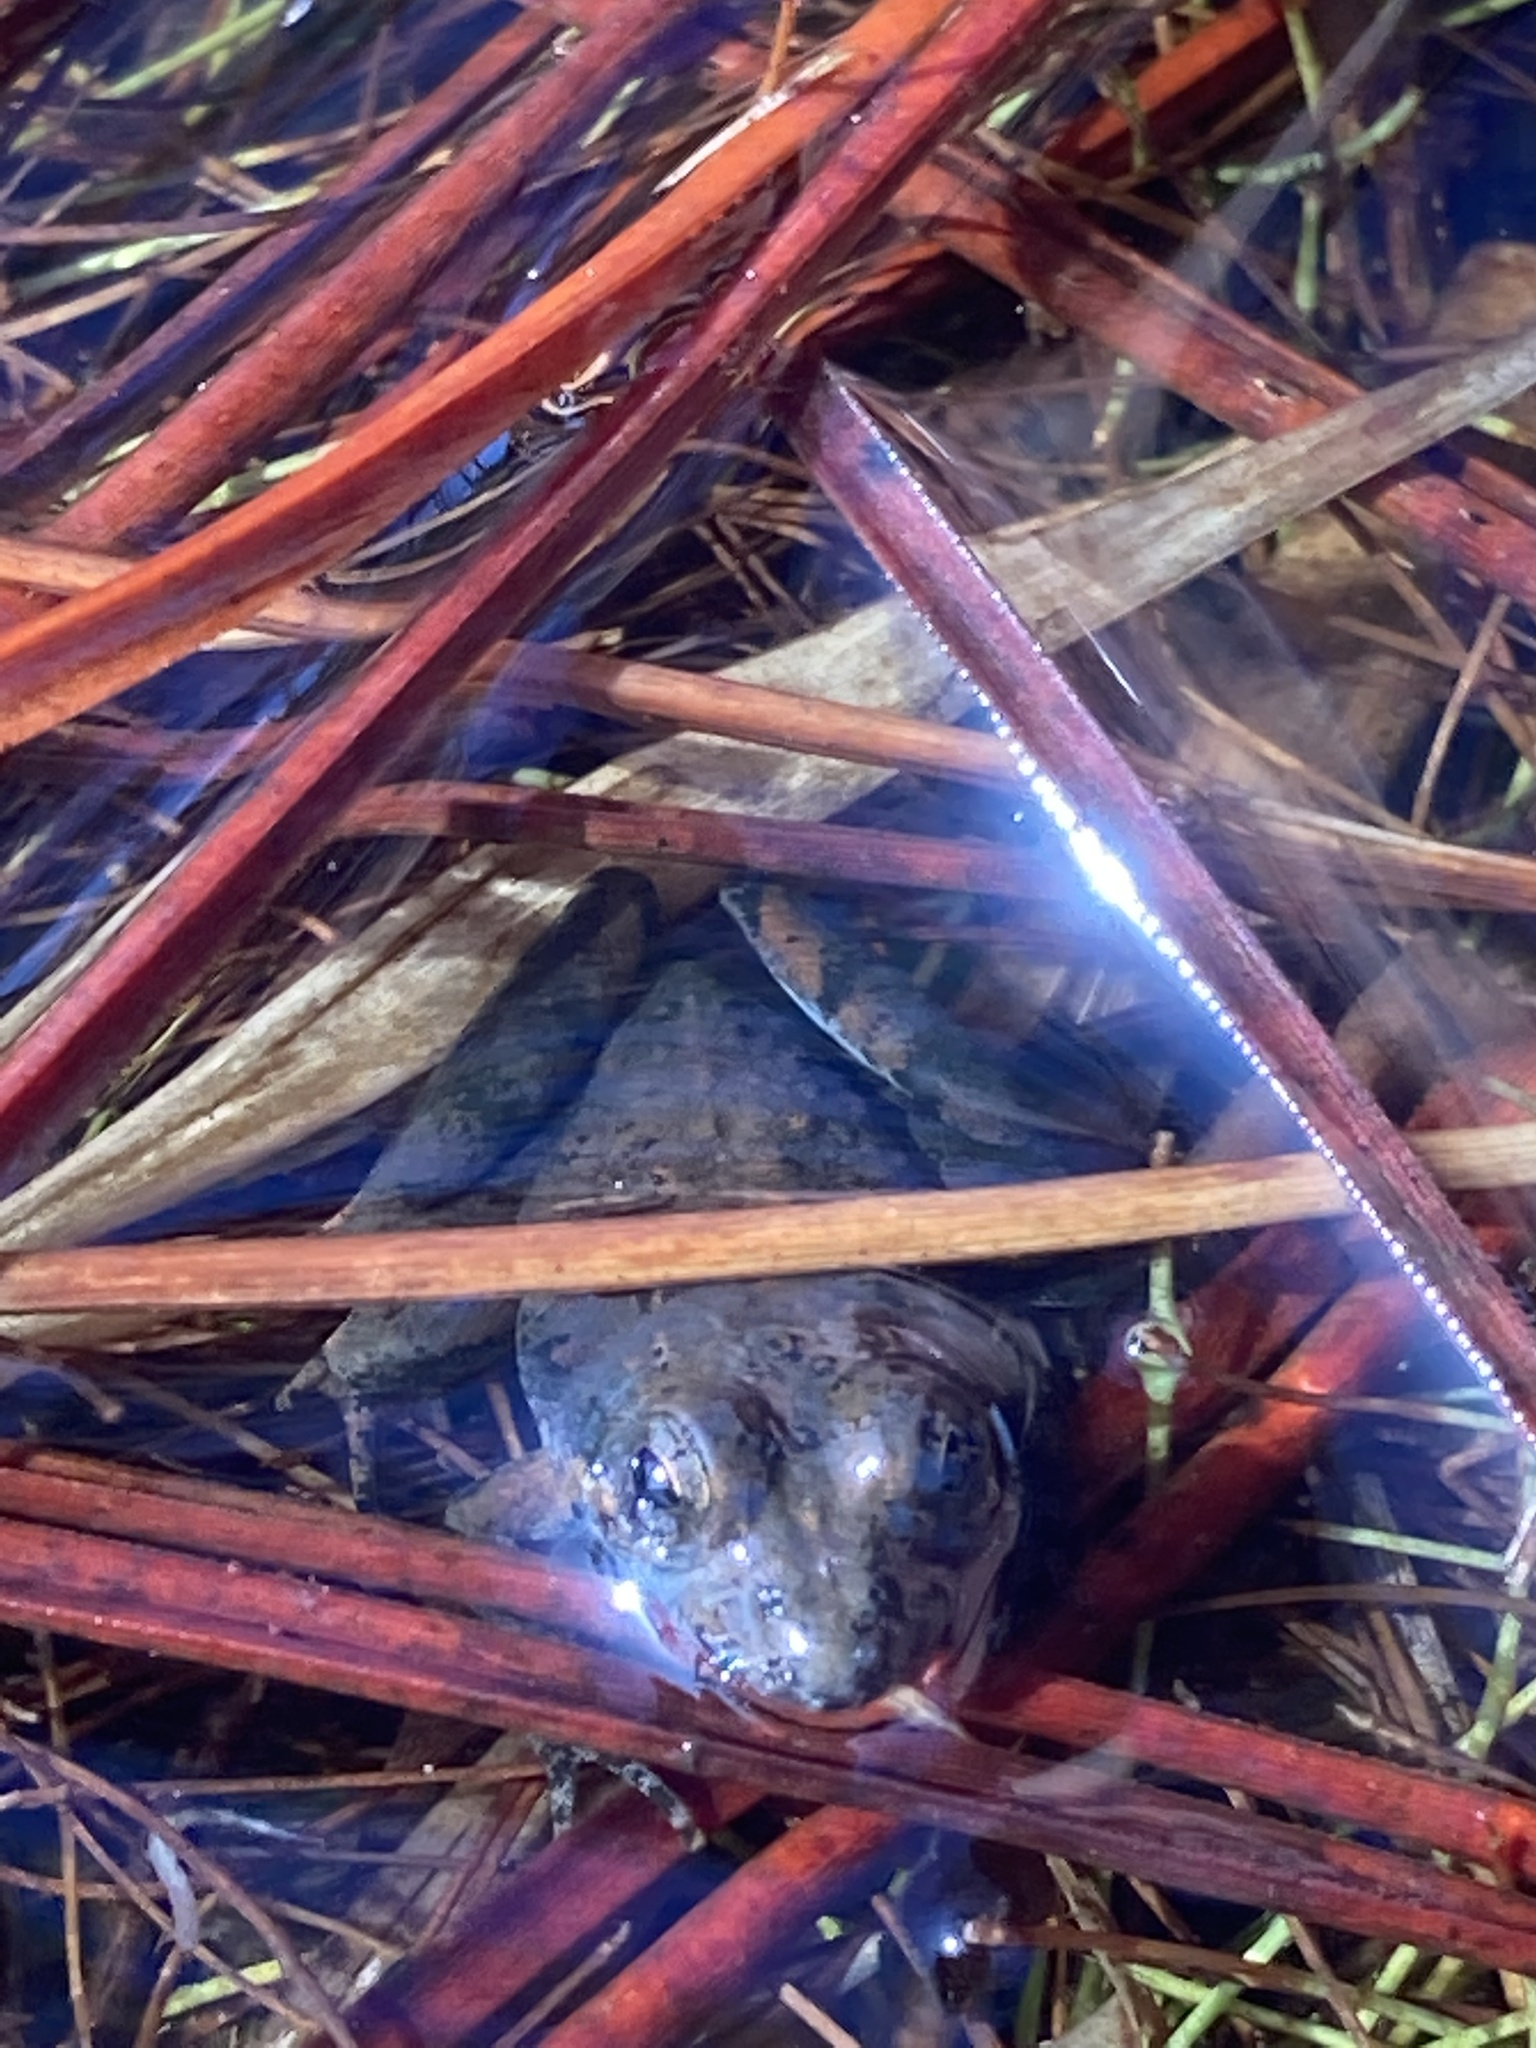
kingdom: Animalia
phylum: Chordata
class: Amphibia
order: Anura
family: Hylidae
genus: Acris
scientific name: Acris gryllus
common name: Southern cricket frog
